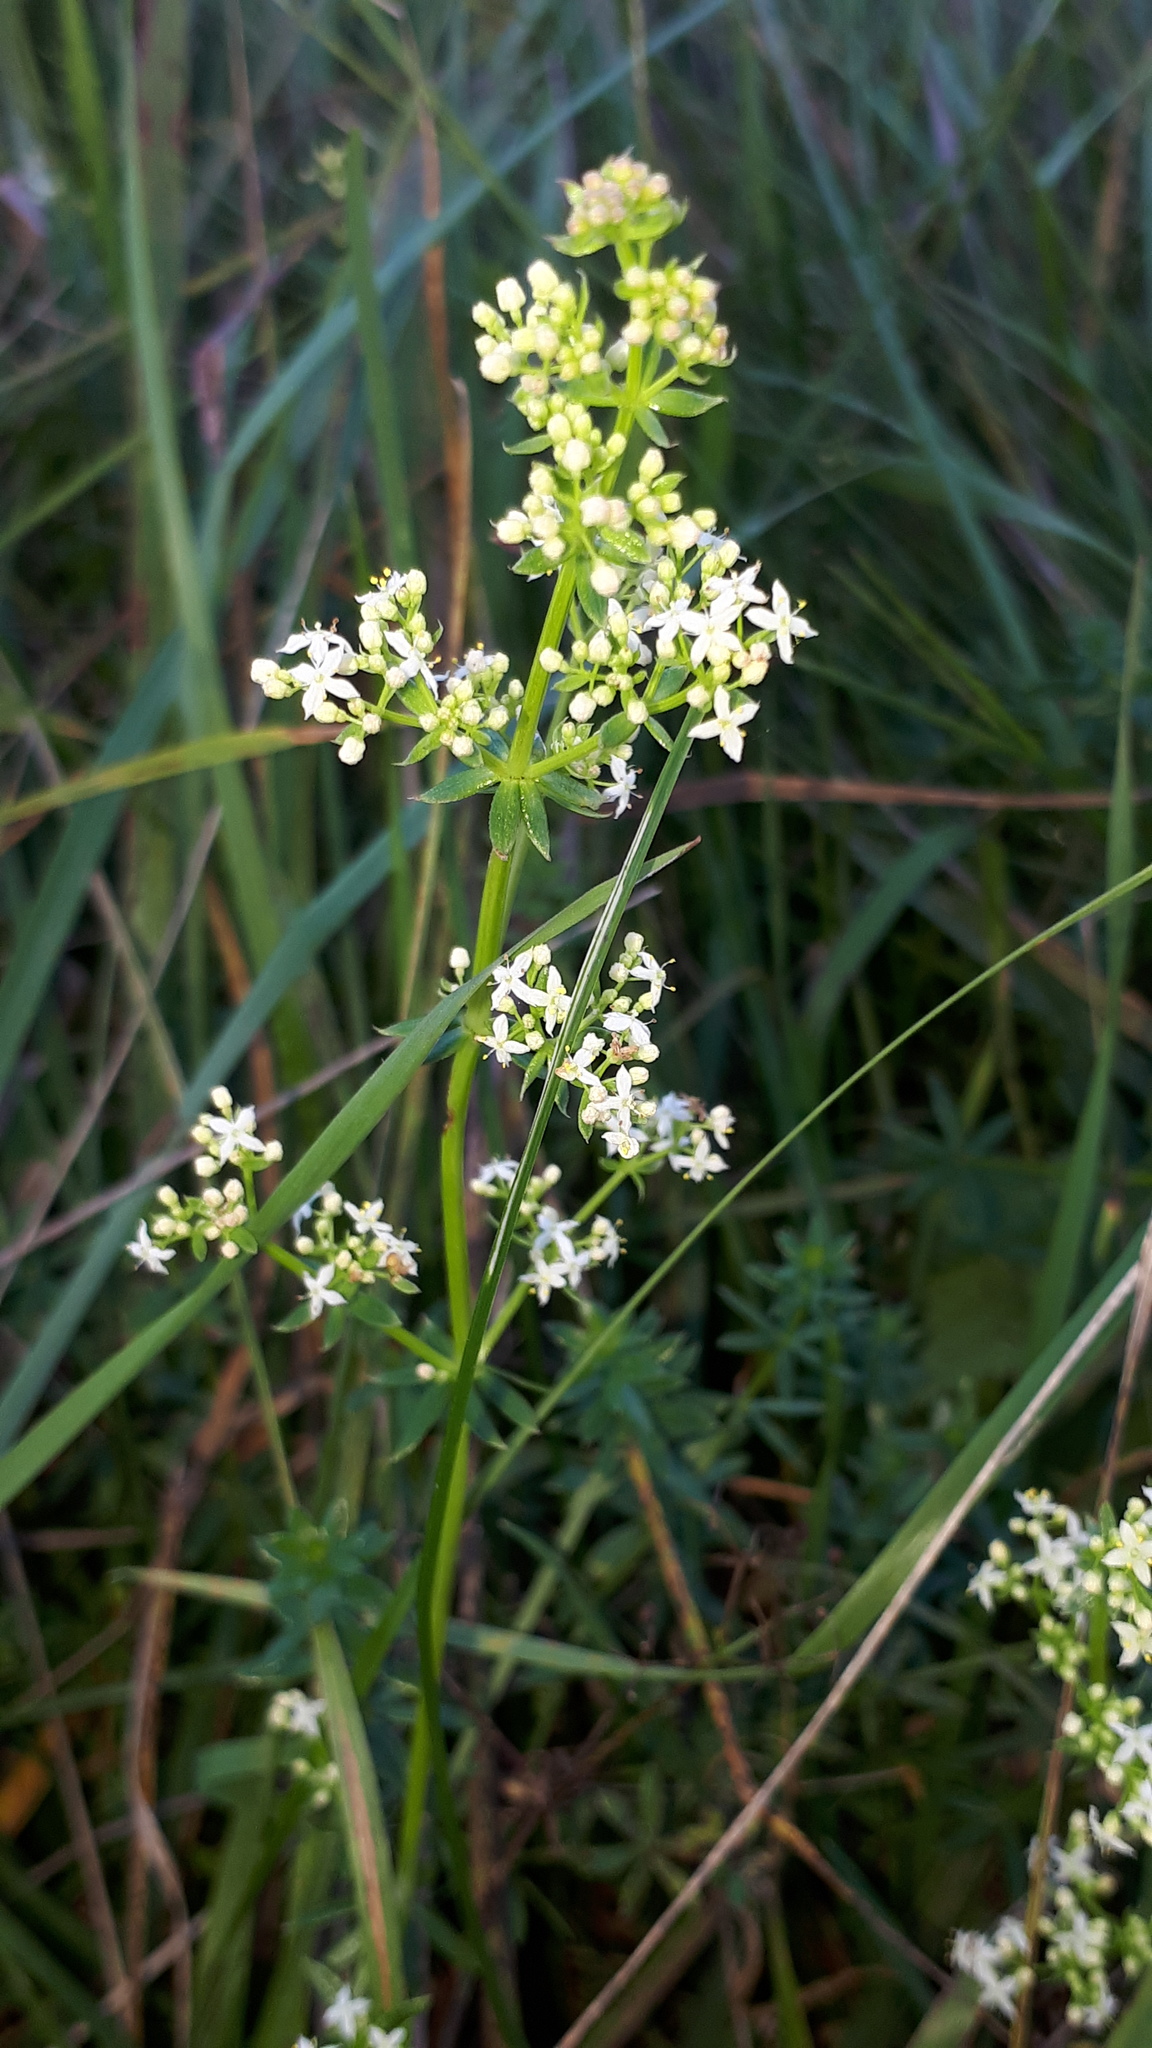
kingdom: Plantae
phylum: Tracheophyta
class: Magnoliopsida
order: Gentianales
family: Rubiaceae
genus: Galium
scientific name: Galium album
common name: White bedstraw
